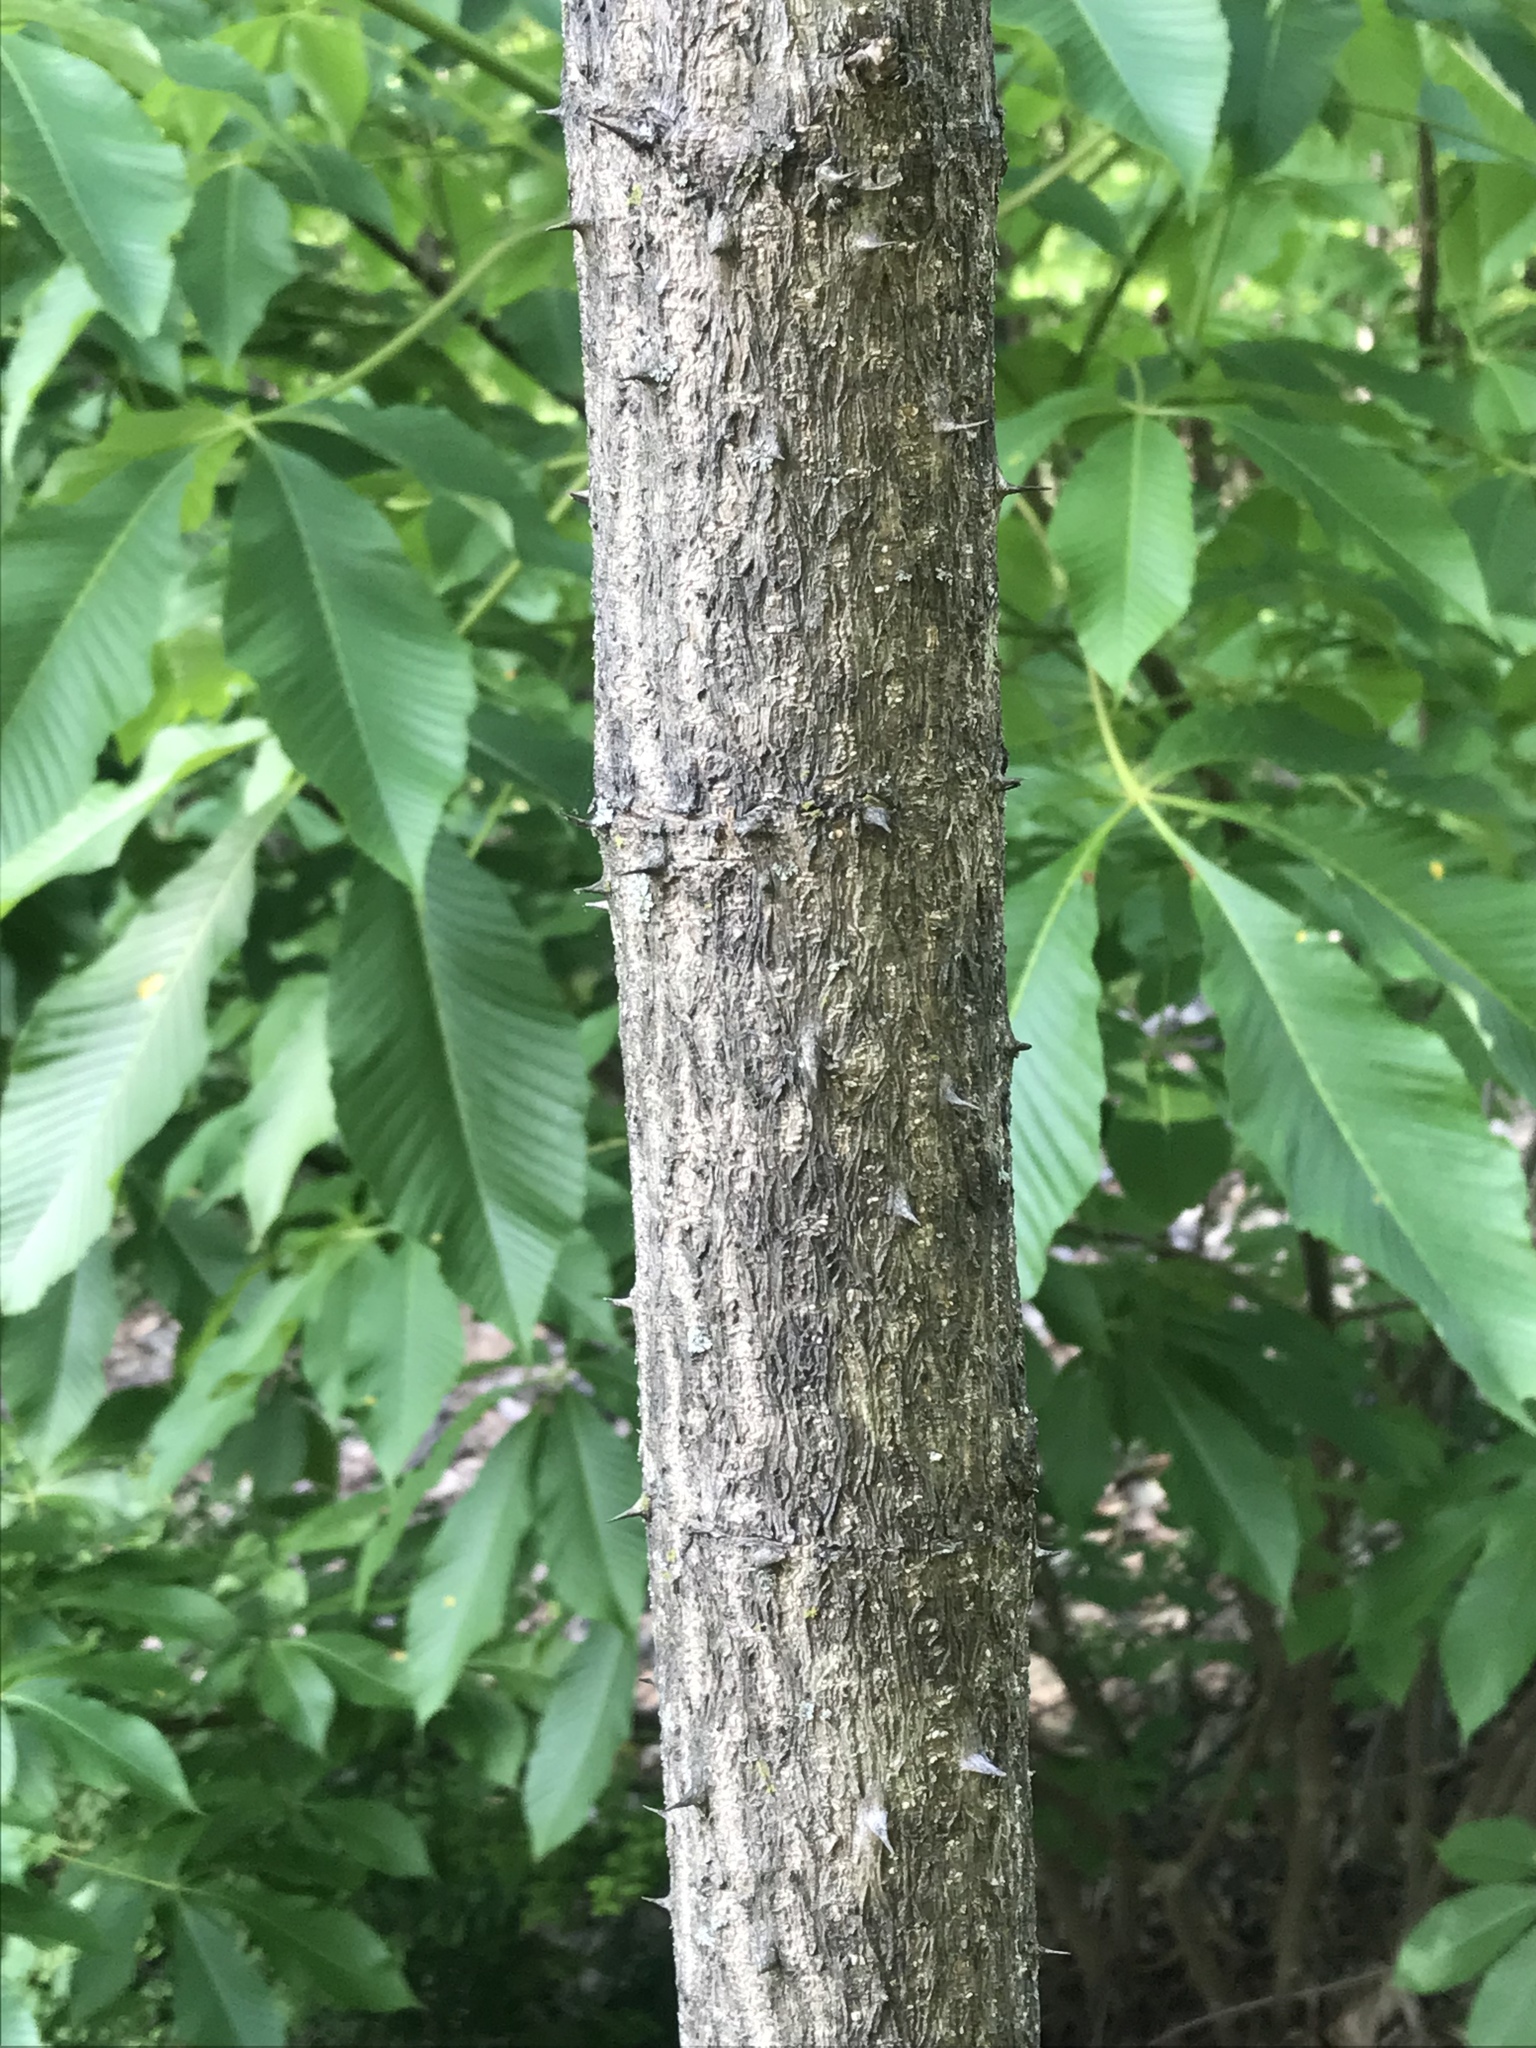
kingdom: Plantae
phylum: Tracheophyta
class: Magnoliopsida
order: Apiales
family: Araliaceae
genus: Aralia
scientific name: Aralia elata
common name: Japanese angelica-tree
